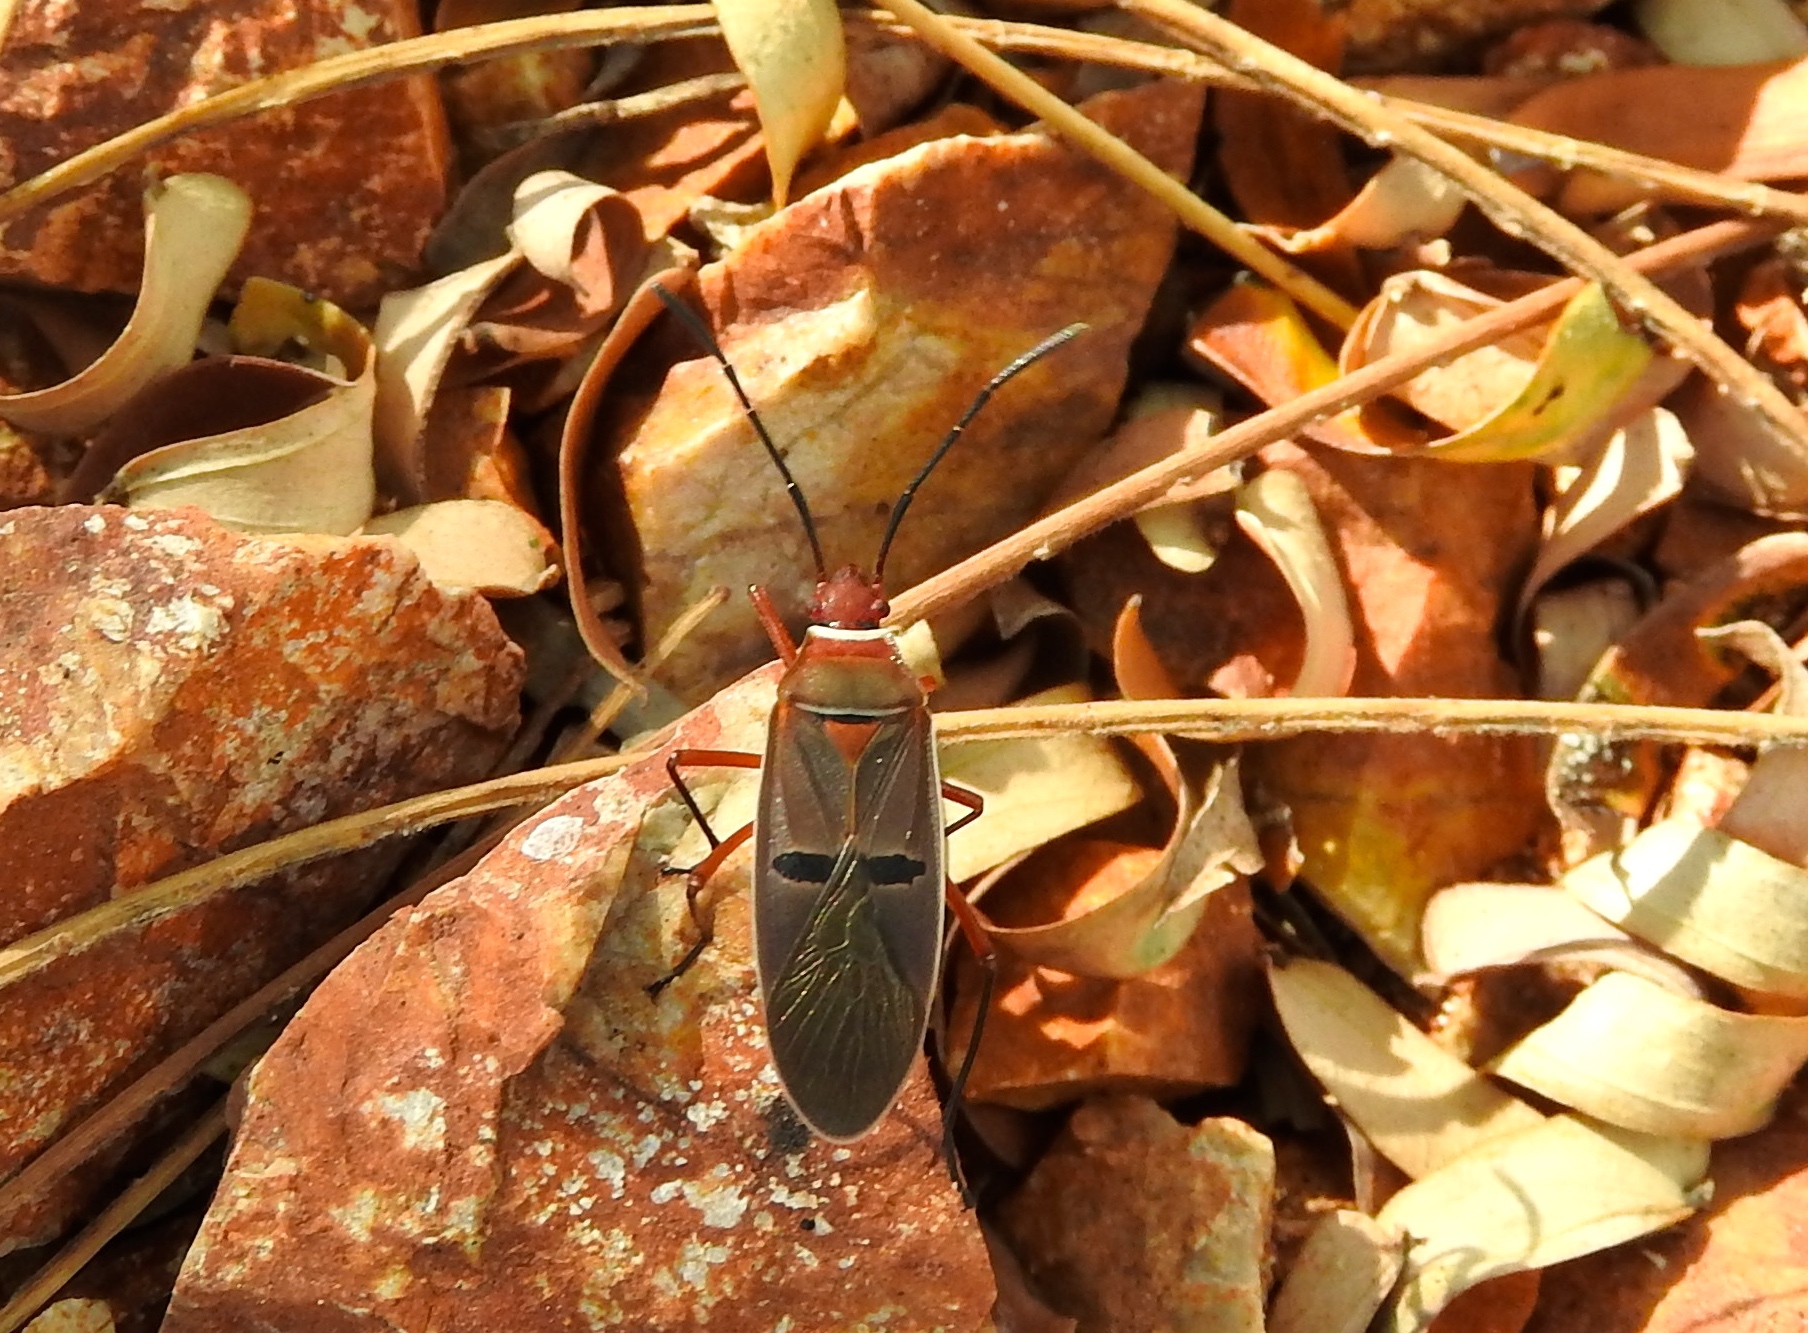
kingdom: Animalia
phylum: Arthropoda
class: Insecta
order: Hemiptera
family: Pyrrhocoridae
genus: Dysdercus
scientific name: Dysdercus
